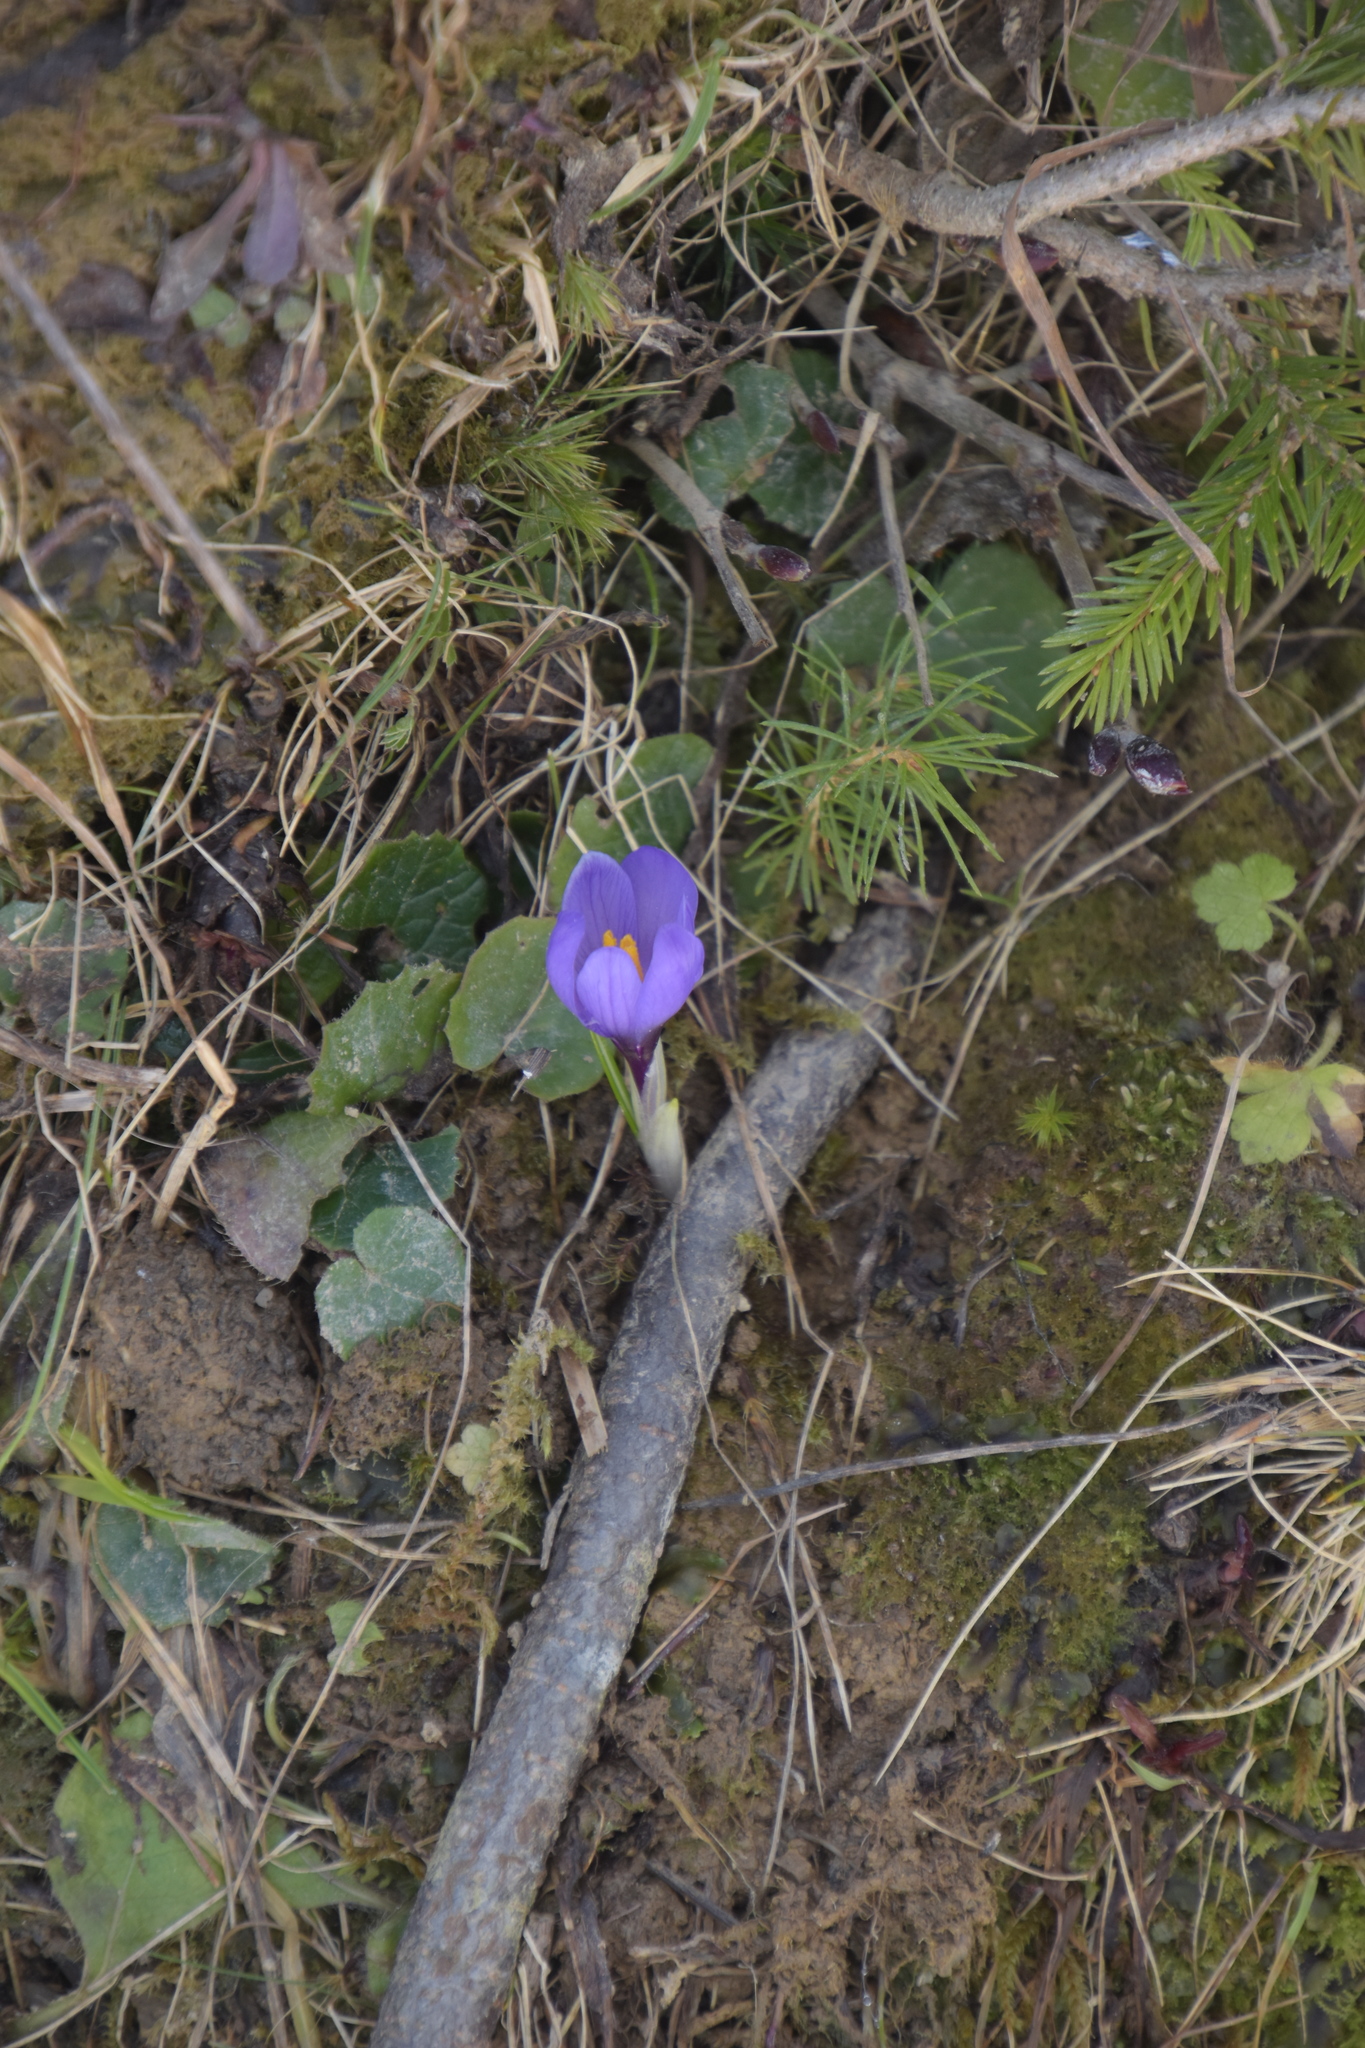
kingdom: Plantae
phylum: Tracheophyta
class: Liliopsida
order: Asparagales
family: Iridaceae
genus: Crocus
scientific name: Crocus vernus
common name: Spring crocus
